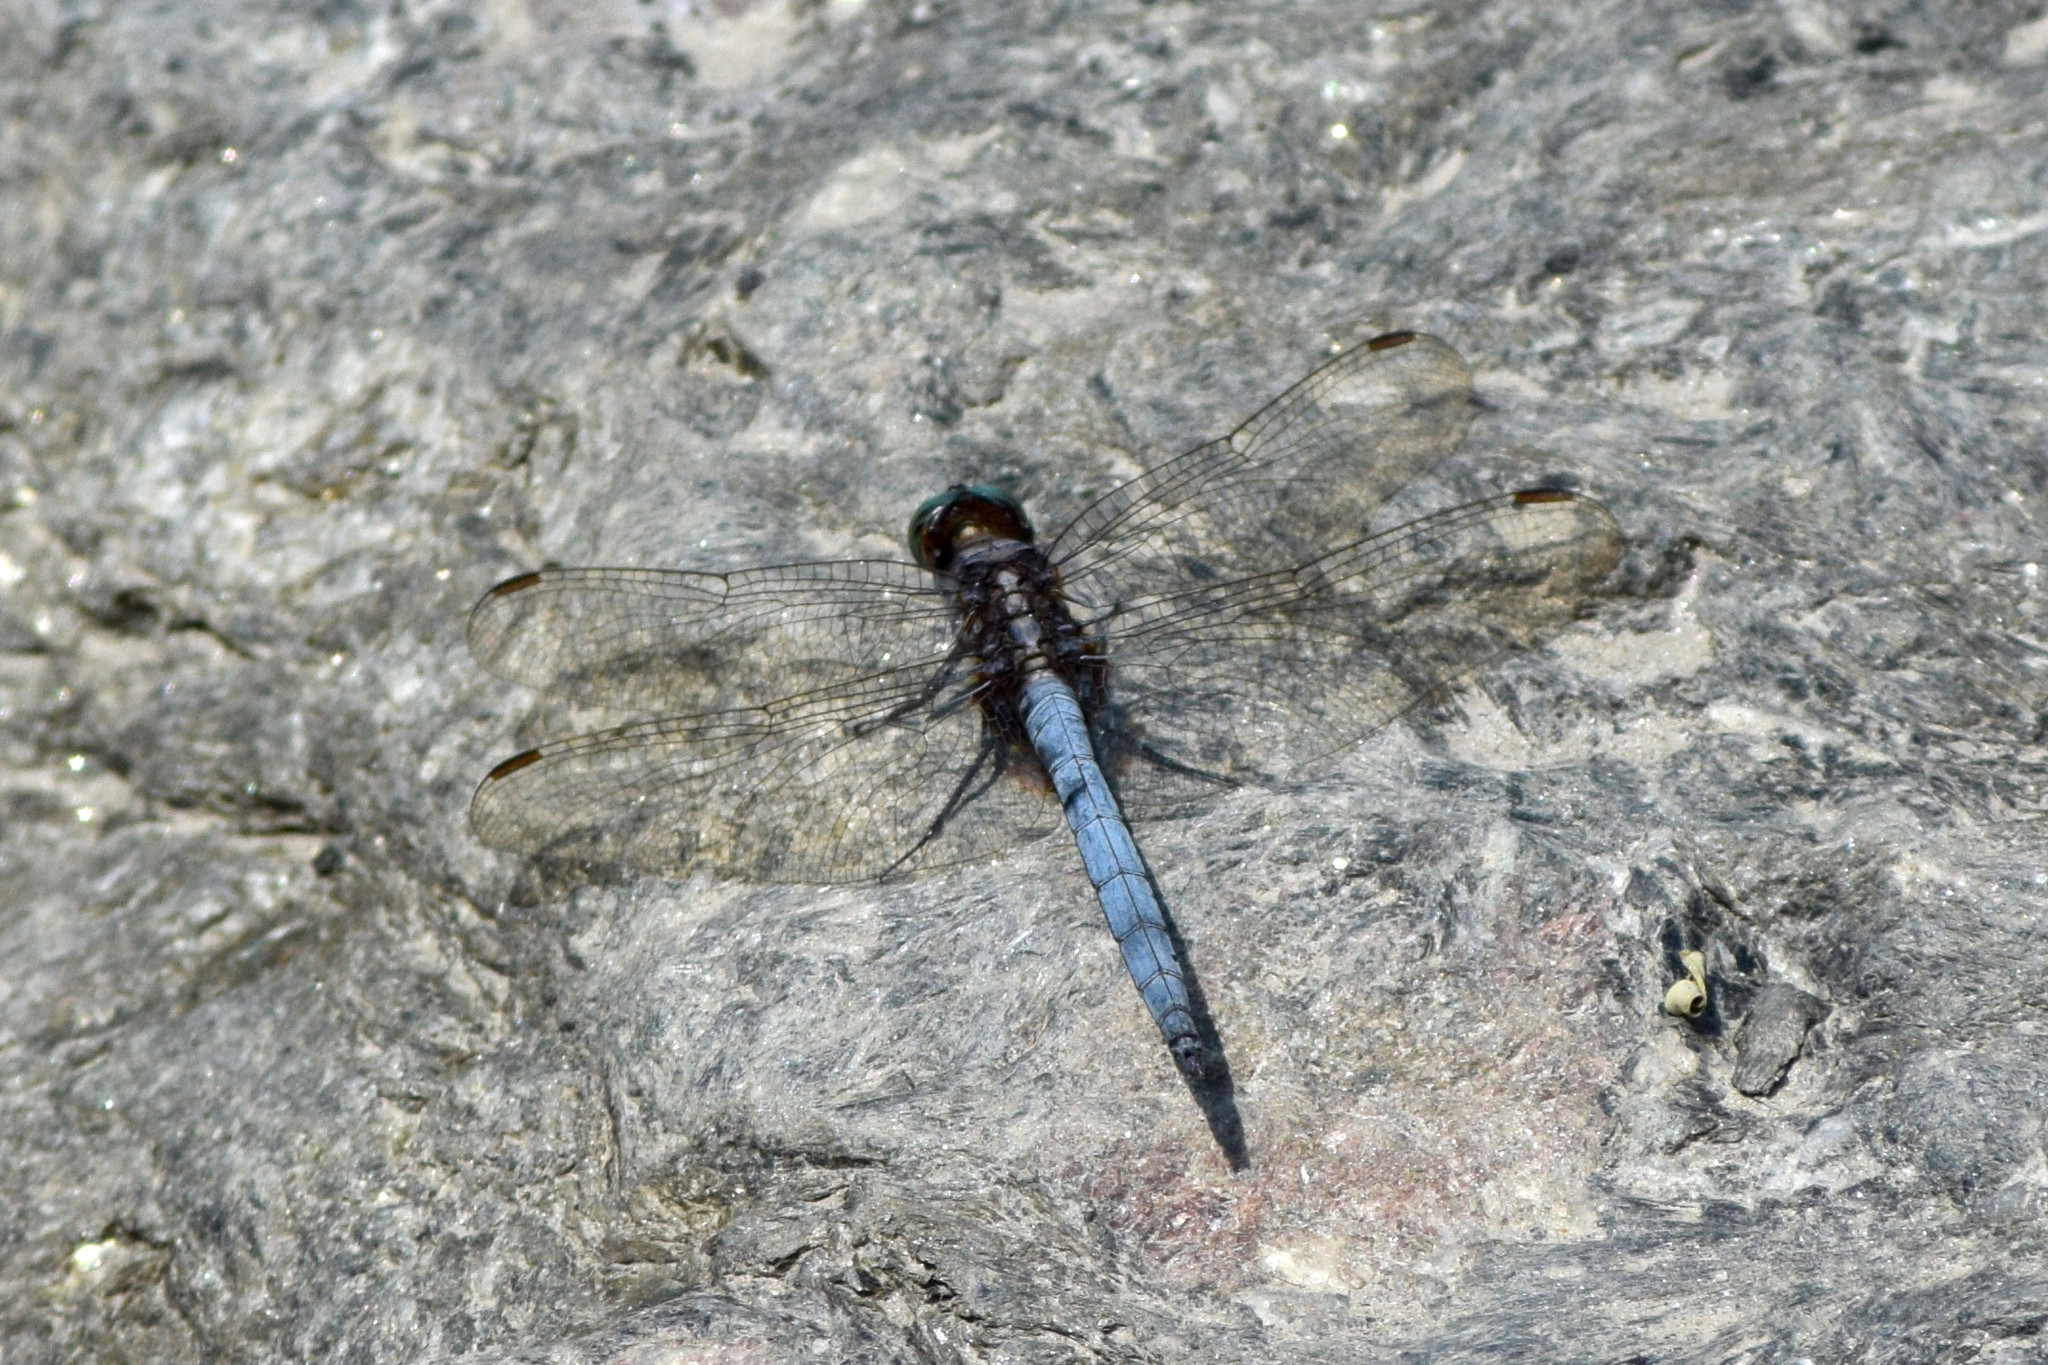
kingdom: Animalia
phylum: Arthropoda
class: Insecta
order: Odonata
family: Libellulidae
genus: Orthetrum
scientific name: Orthetrum glaucum
